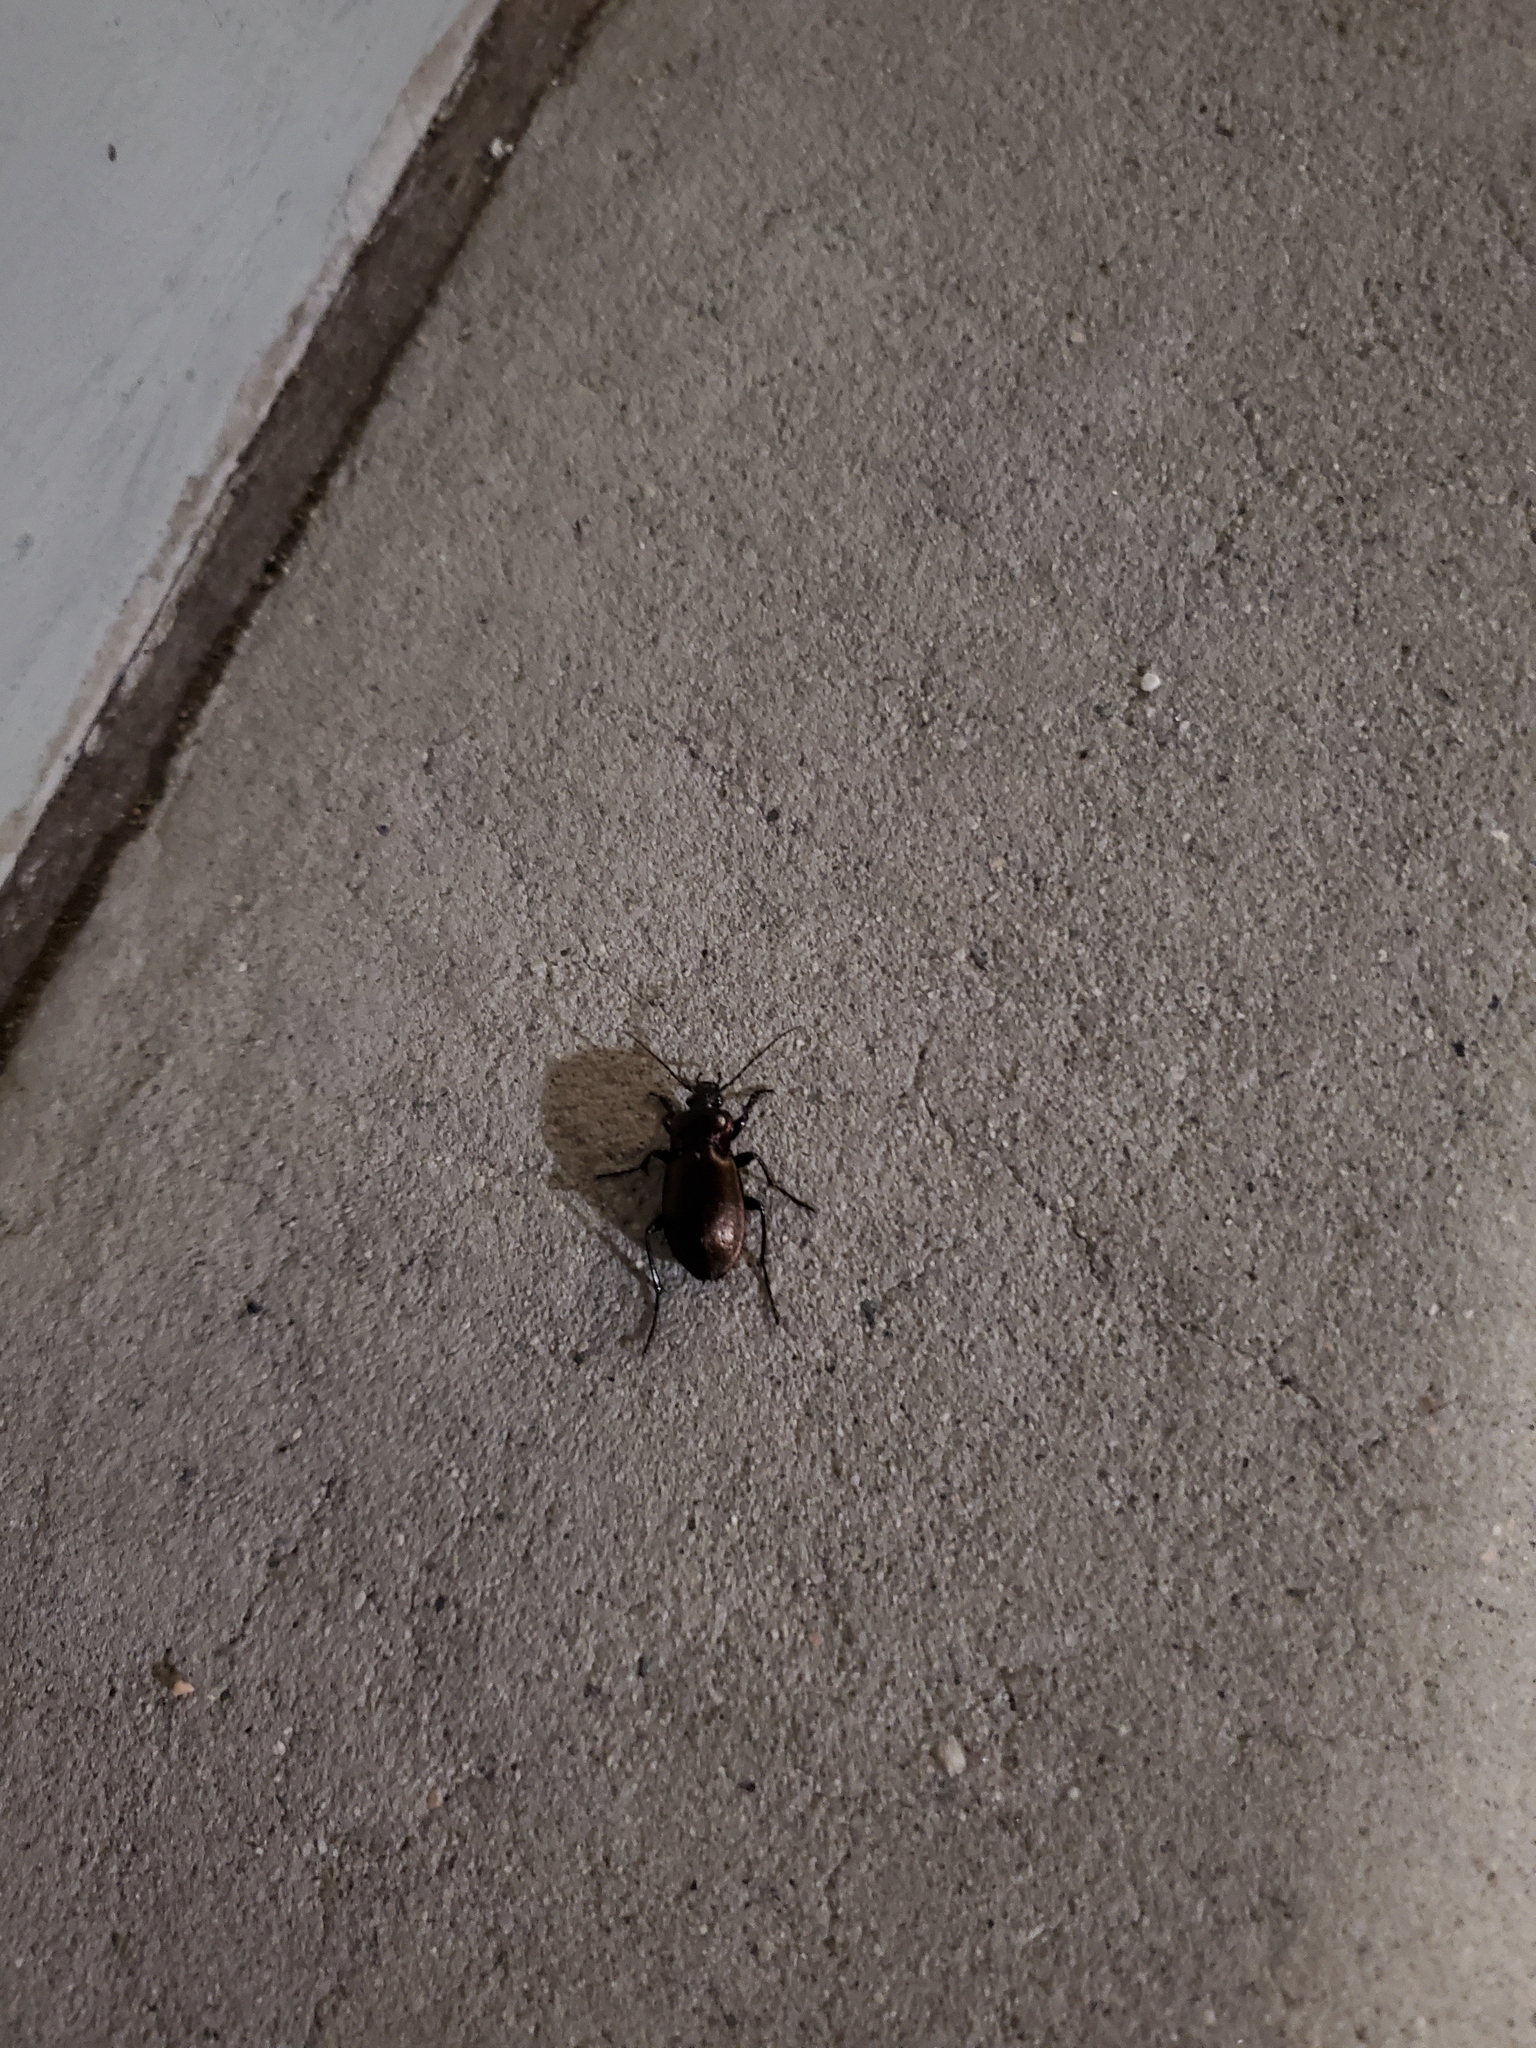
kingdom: Animalia
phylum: Arthropoda
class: Insecta
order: Coleoptera
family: Carabidae
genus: Carabus
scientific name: Carabus nemoralis
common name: European ground beetle
